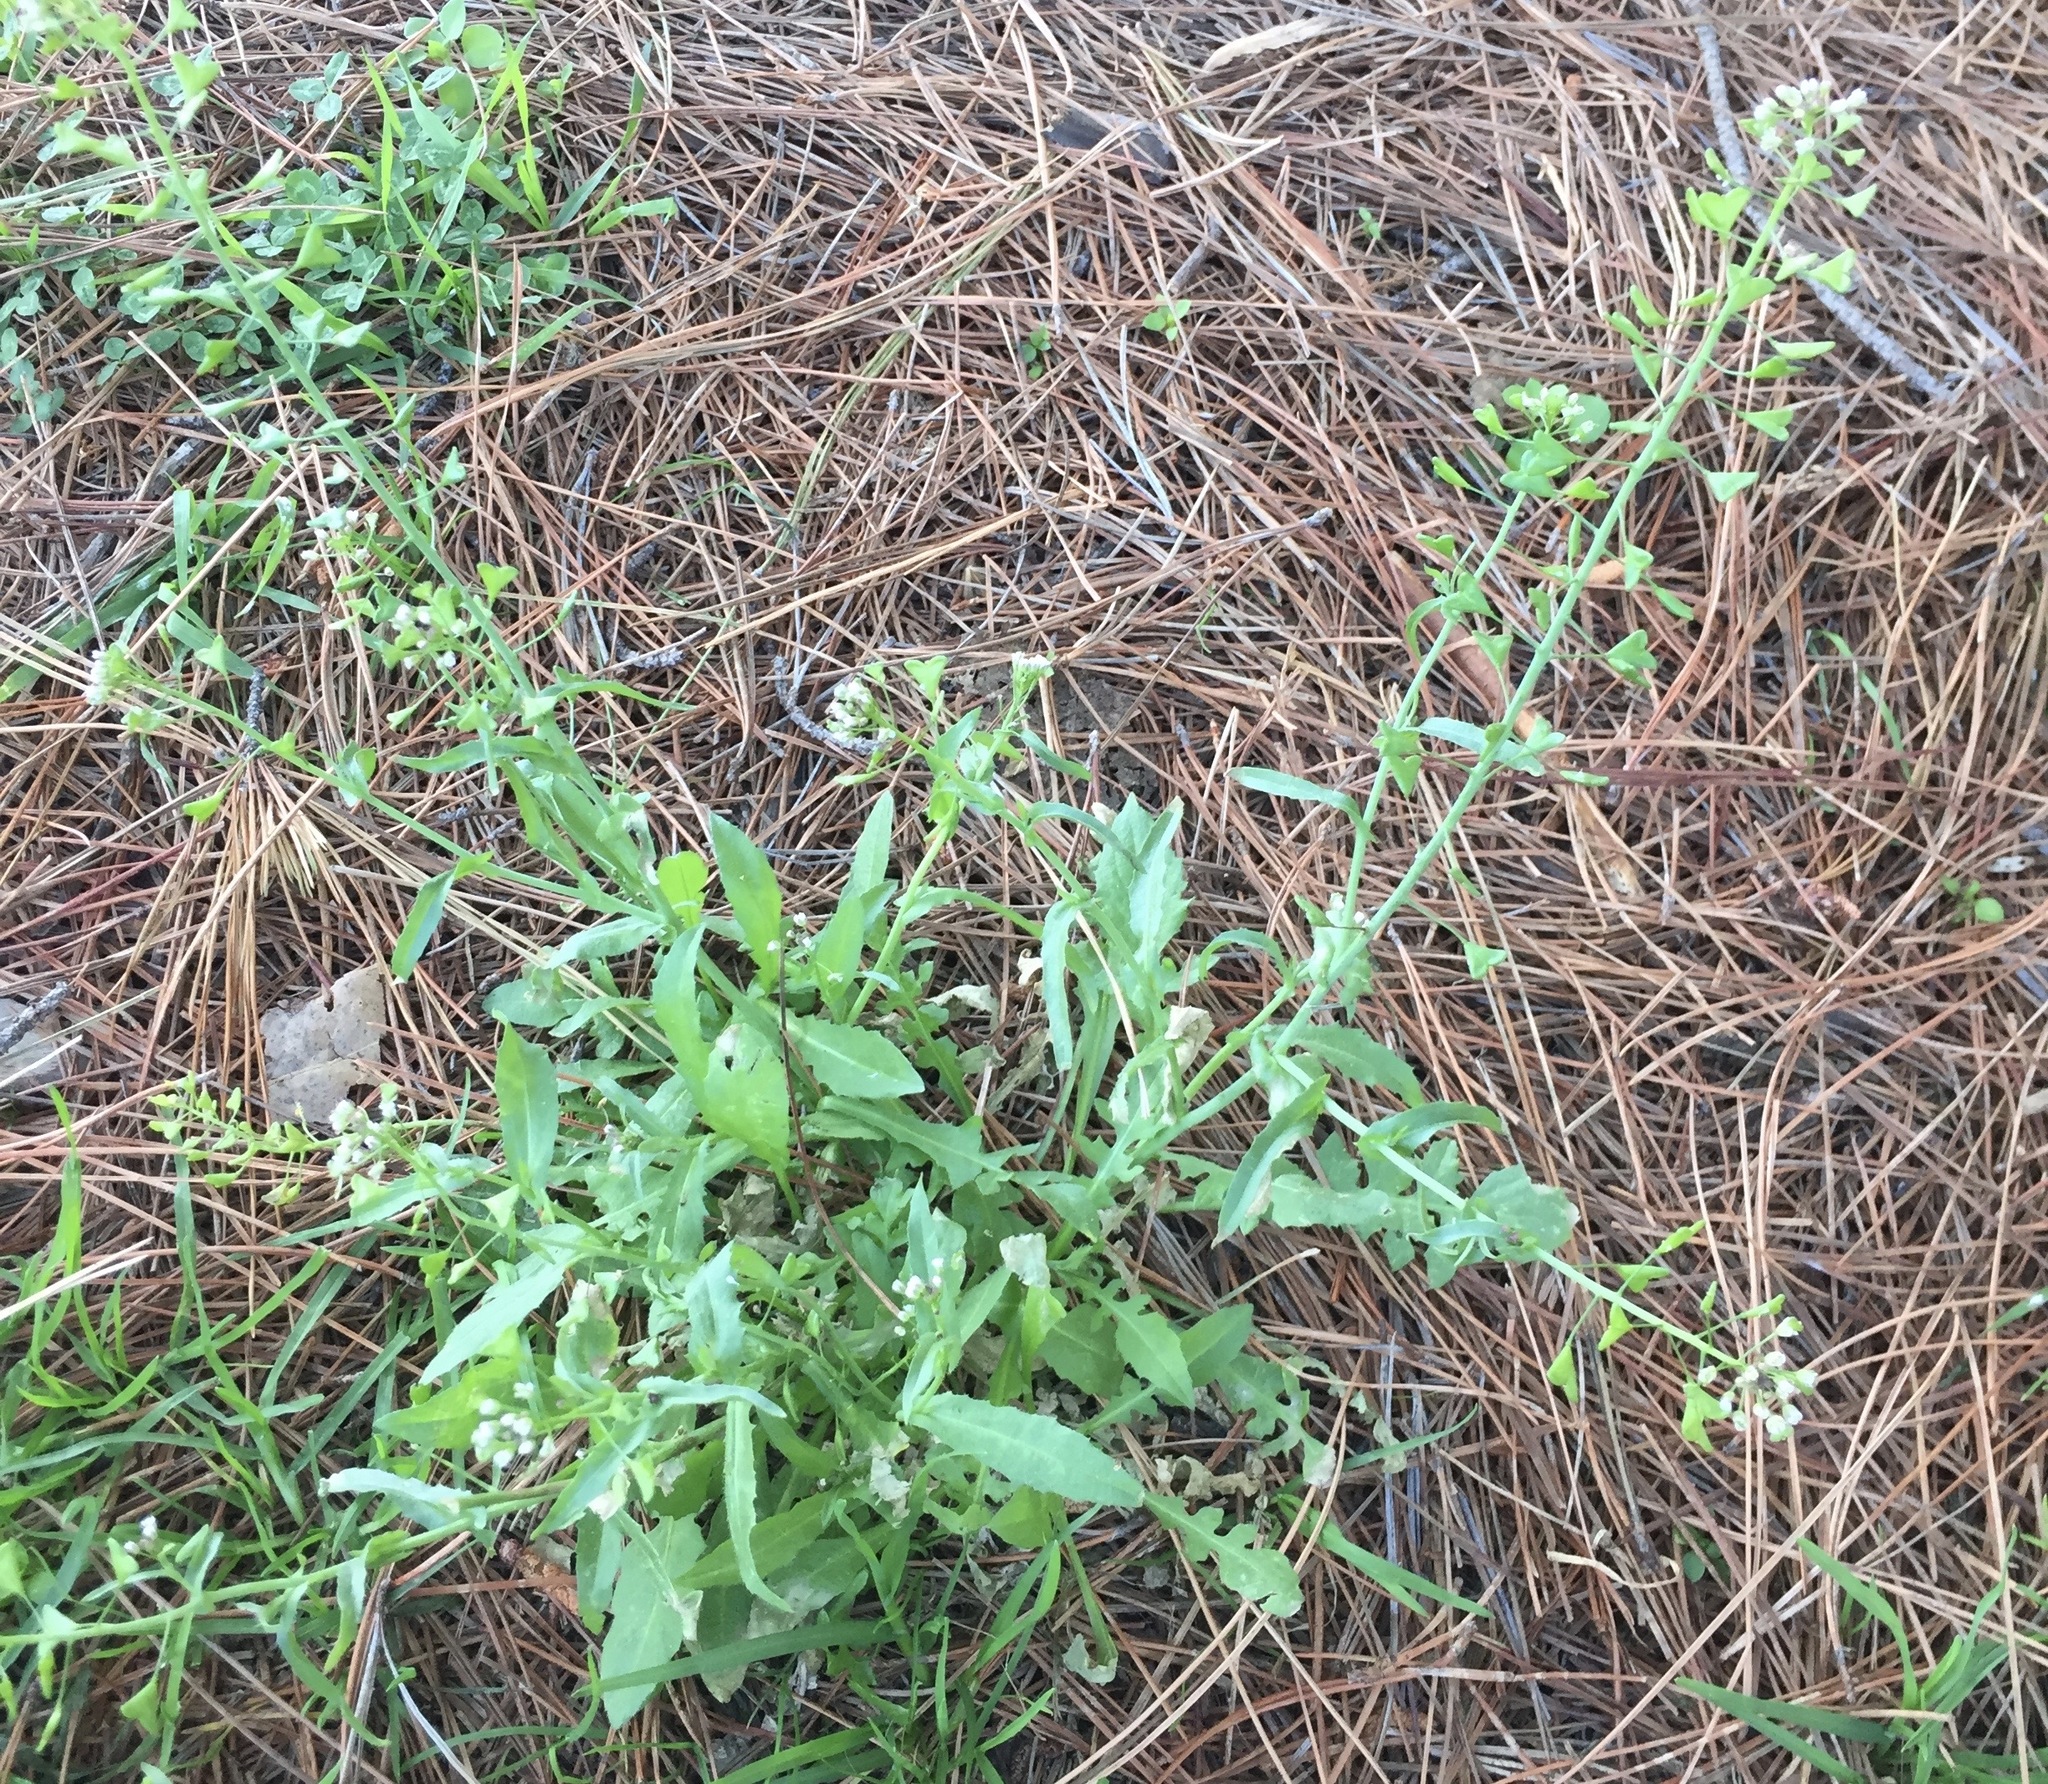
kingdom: Plantae
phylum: Tracheophyta
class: Magnoliopsida
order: Brassicales
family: Brassicaceae
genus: Capsella
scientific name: Capsella bursa-pastoris
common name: Shepherd's purse
